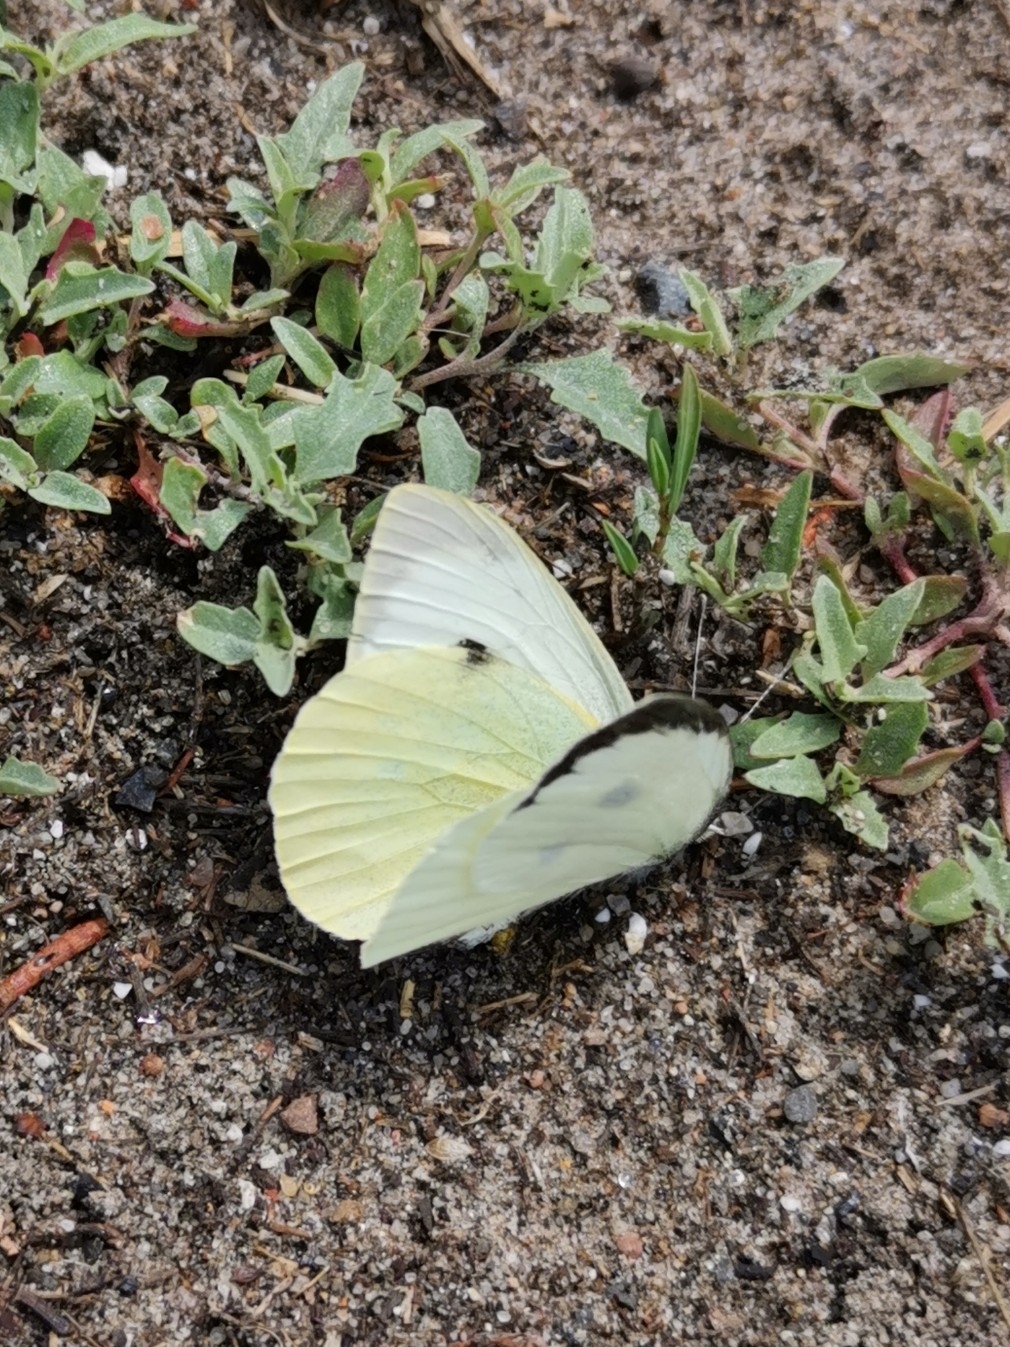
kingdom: Animalia
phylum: Arthropoda
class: Insecta
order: Lepidoptera
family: Pieridae
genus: Pieris
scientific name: Pieris brassicae
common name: Large white
